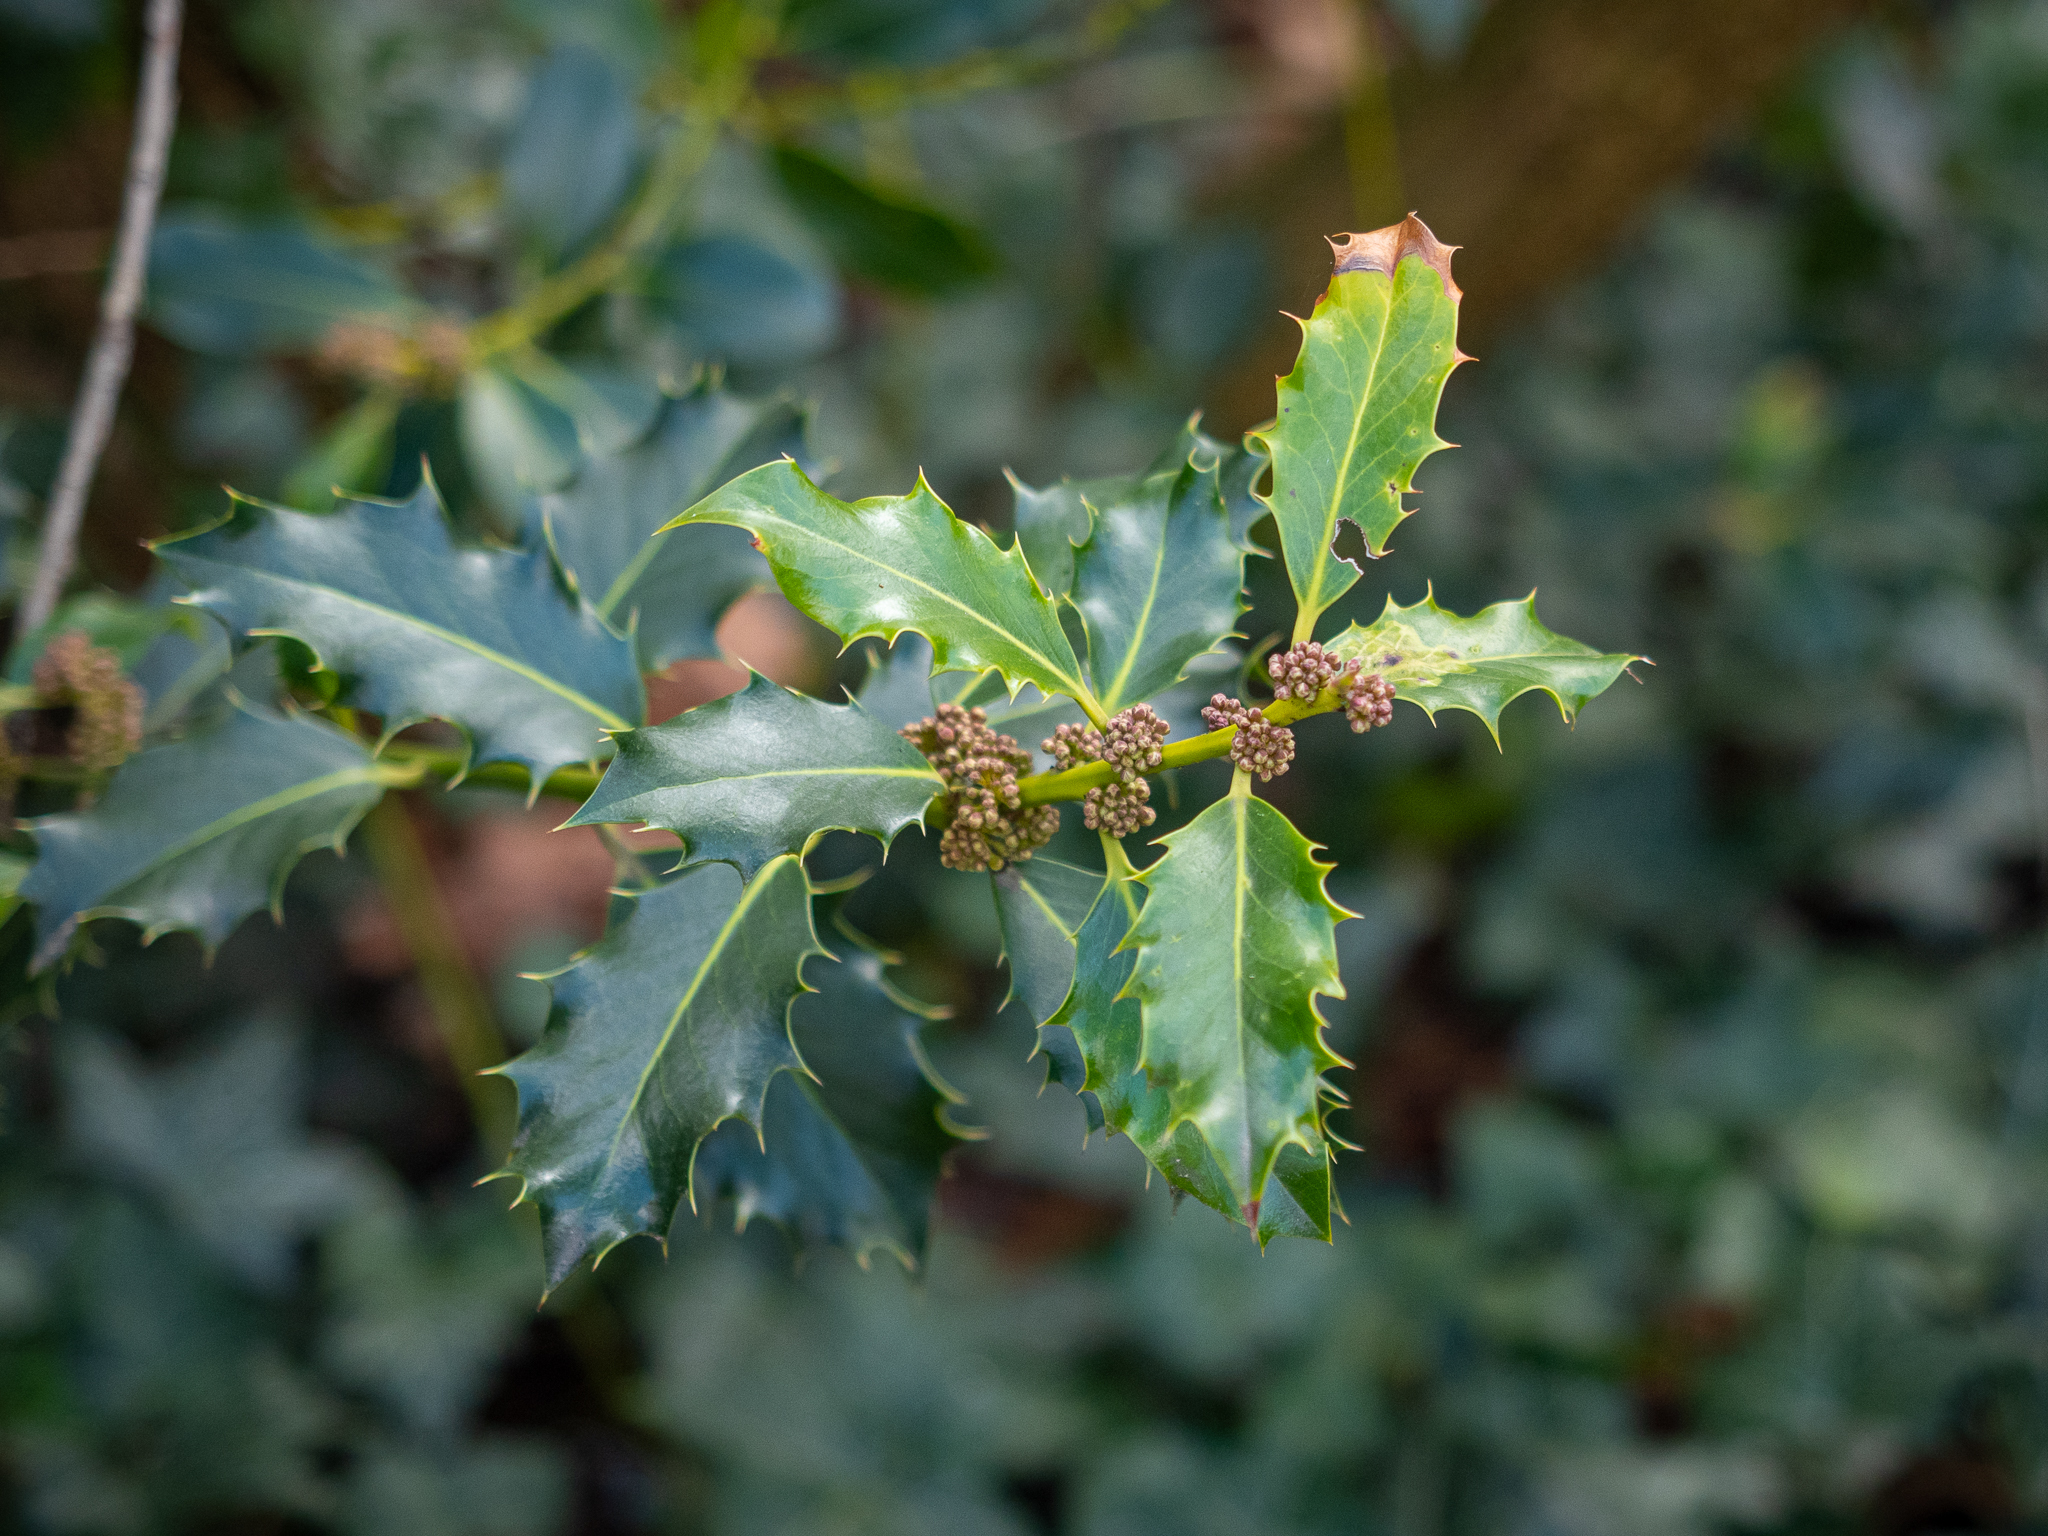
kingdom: Plantae
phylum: Tracheophyta
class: Magnoliopsida
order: Aquifoliales
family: Aquifoliaceae
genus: Ilex
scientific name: Ilex aquifolium
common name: English holly
